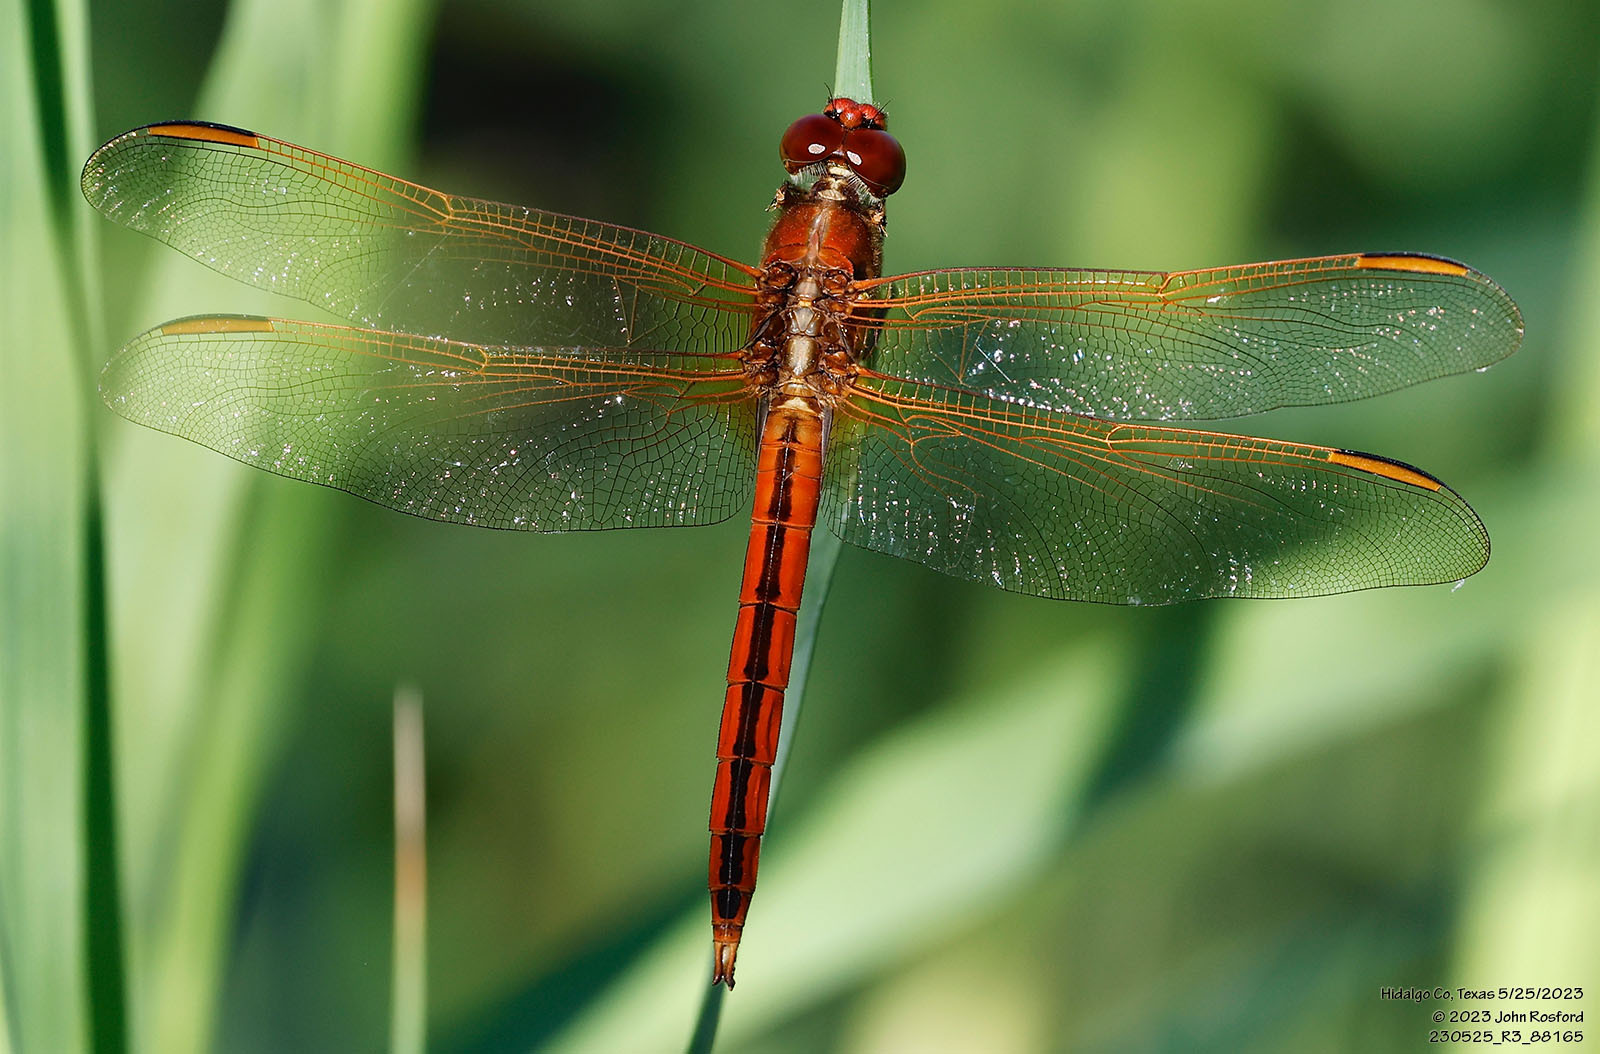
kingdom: Animalia
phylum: Arthropoda
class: Insecta
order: Odonata
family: Libellulidae
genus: Libellula
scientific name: Libellula needhami
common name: Needham's skimmer
